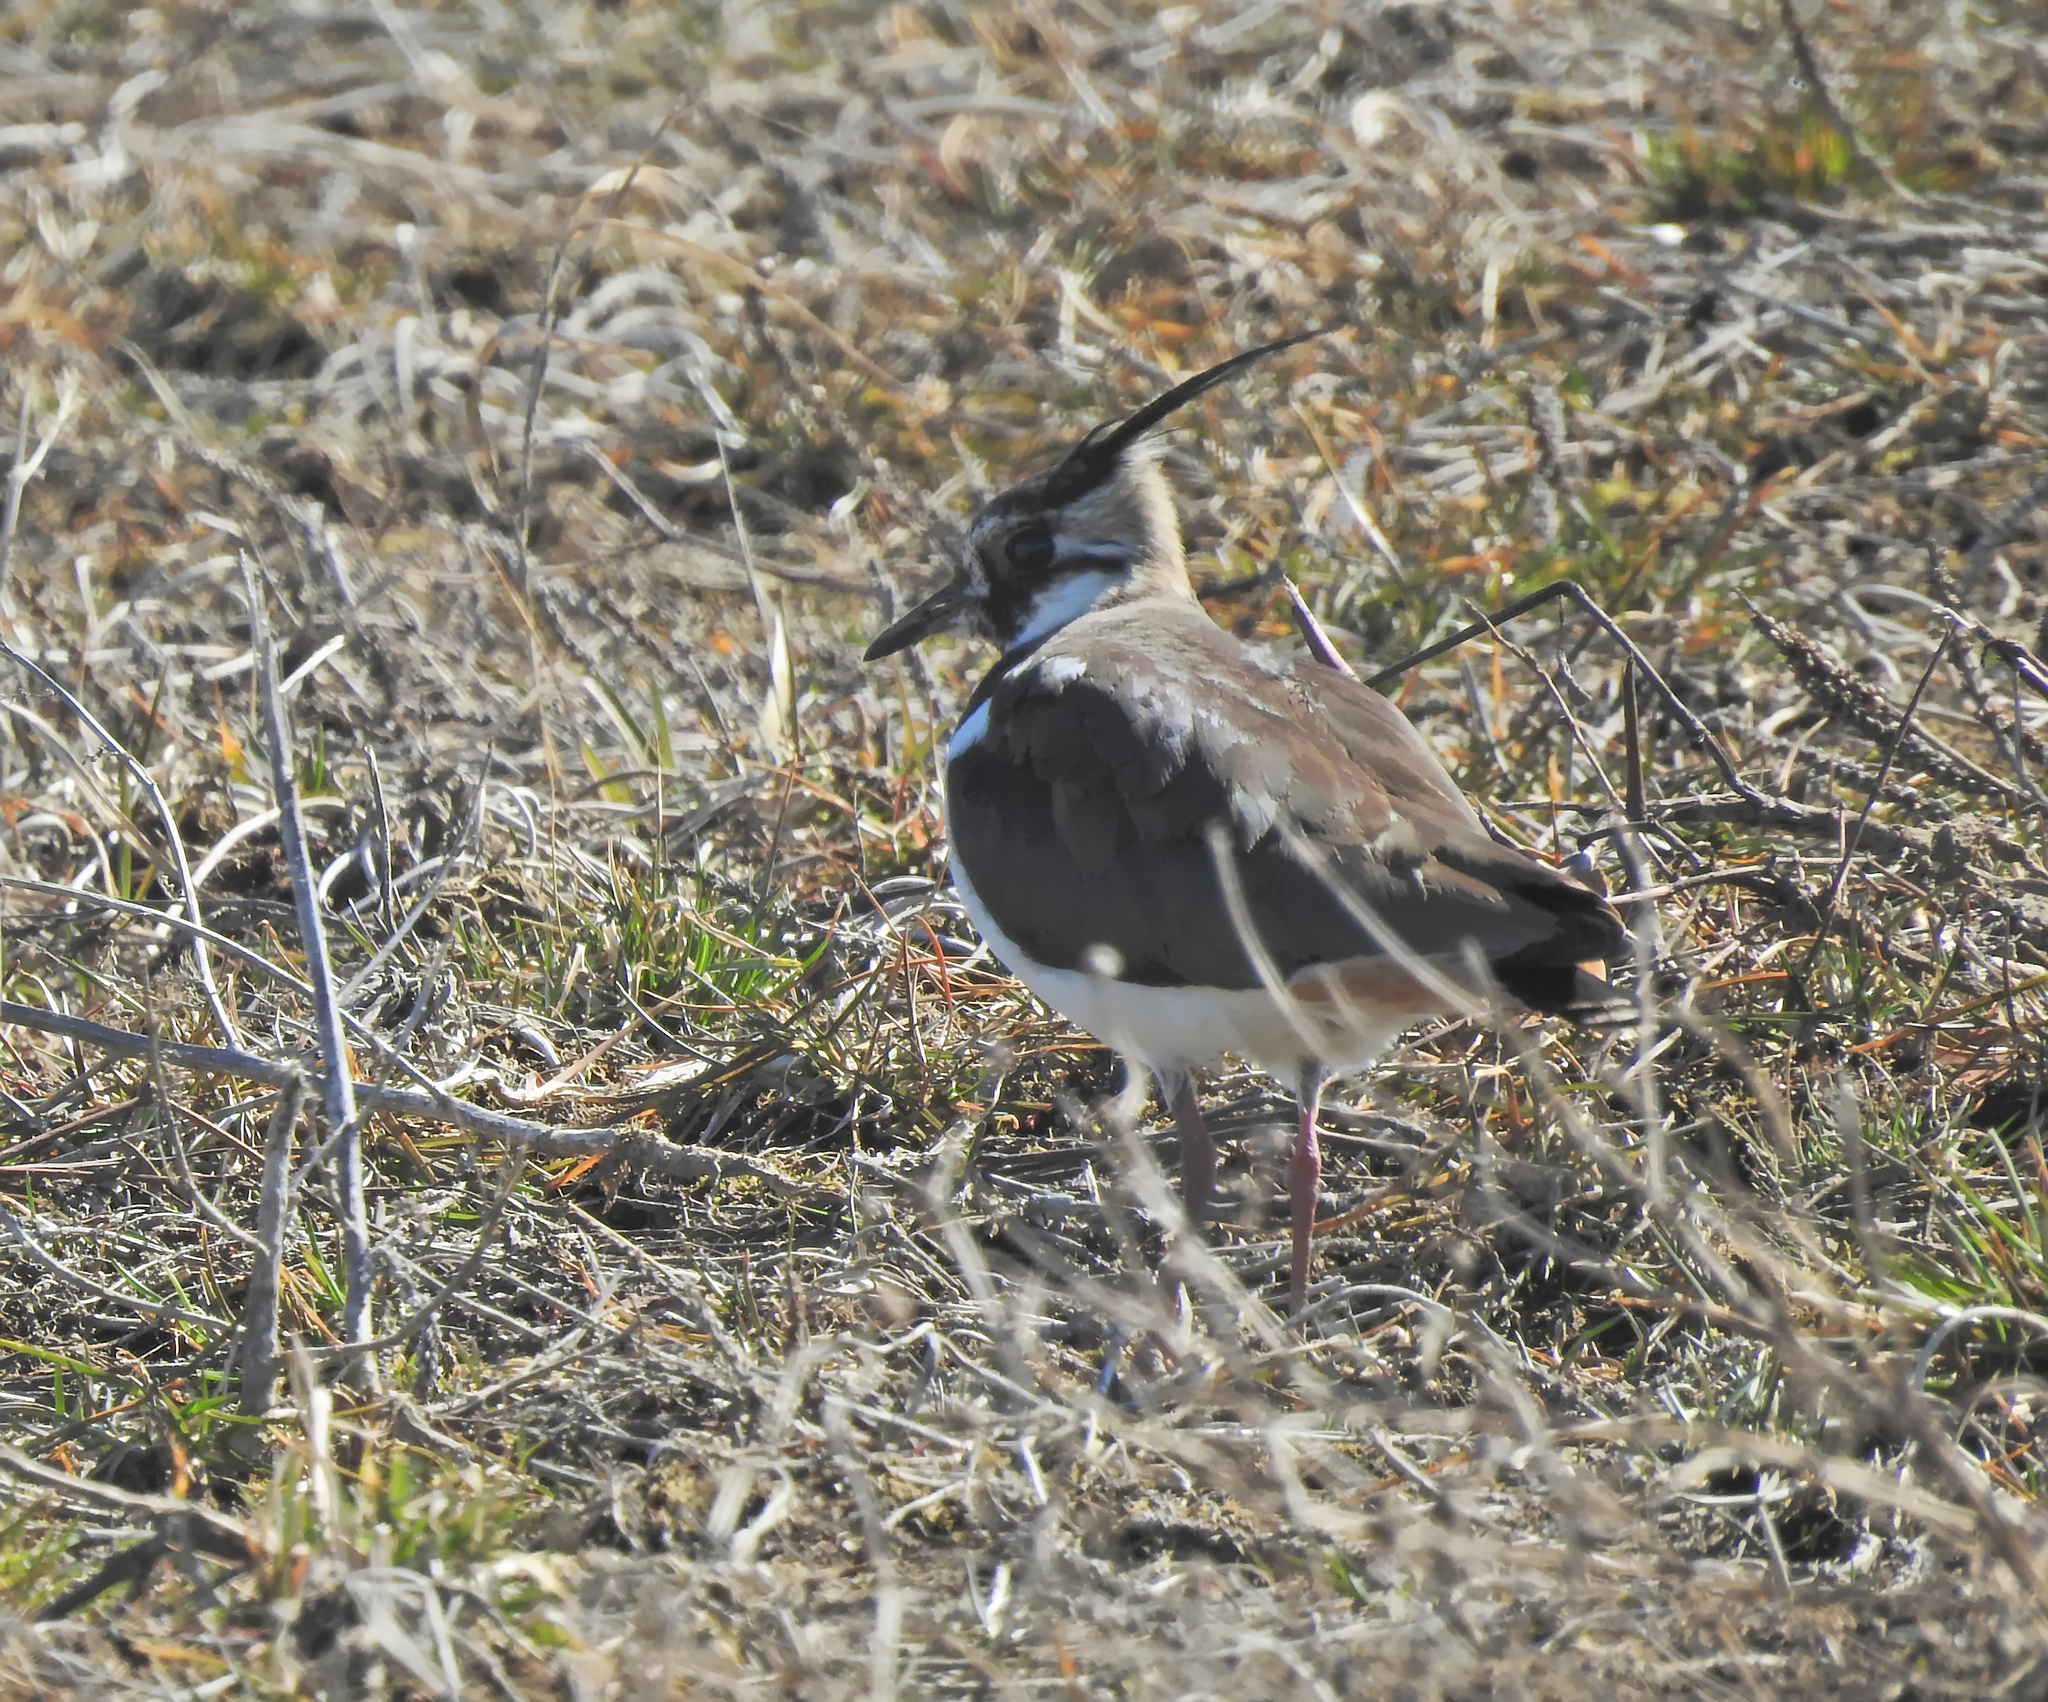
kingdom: Animalia
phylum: Chordata
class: Aves
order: Charadriiformes
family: Charadriidae
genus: Vanellus
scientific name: Vanellus vanellus
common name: Northern lapwing
